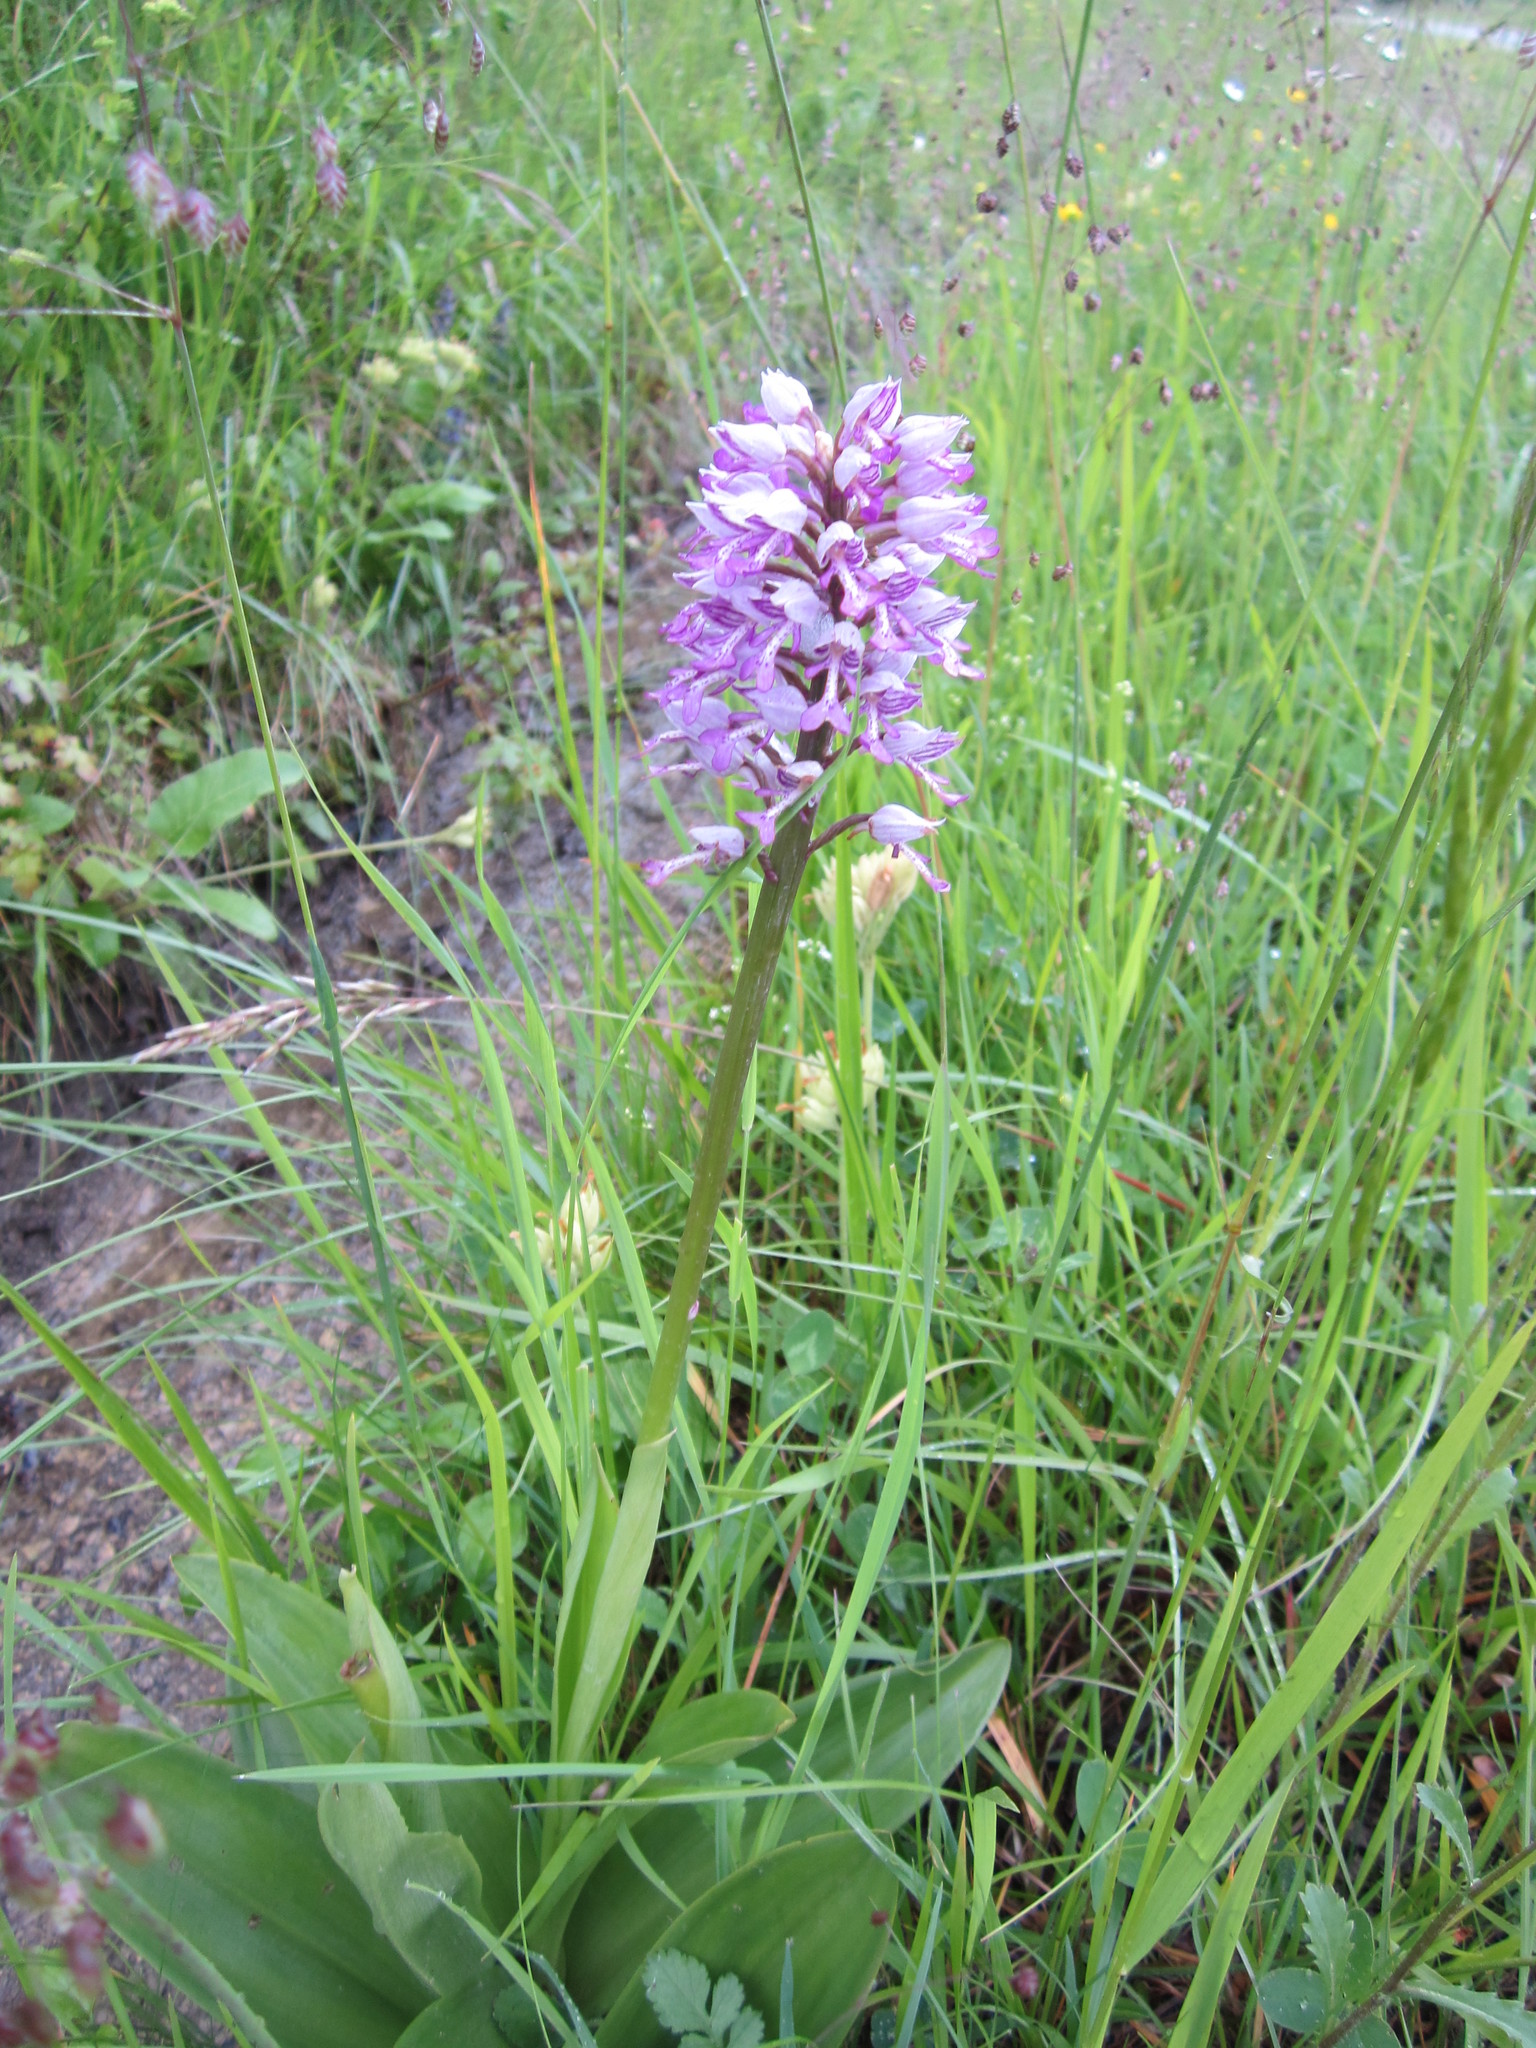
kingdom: Plantae
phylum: Tracheophyta
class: Liliopsida
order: Asparagales
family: Orchidaceae
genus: Orchis
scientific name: Orchis militaris
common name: Military orchid
